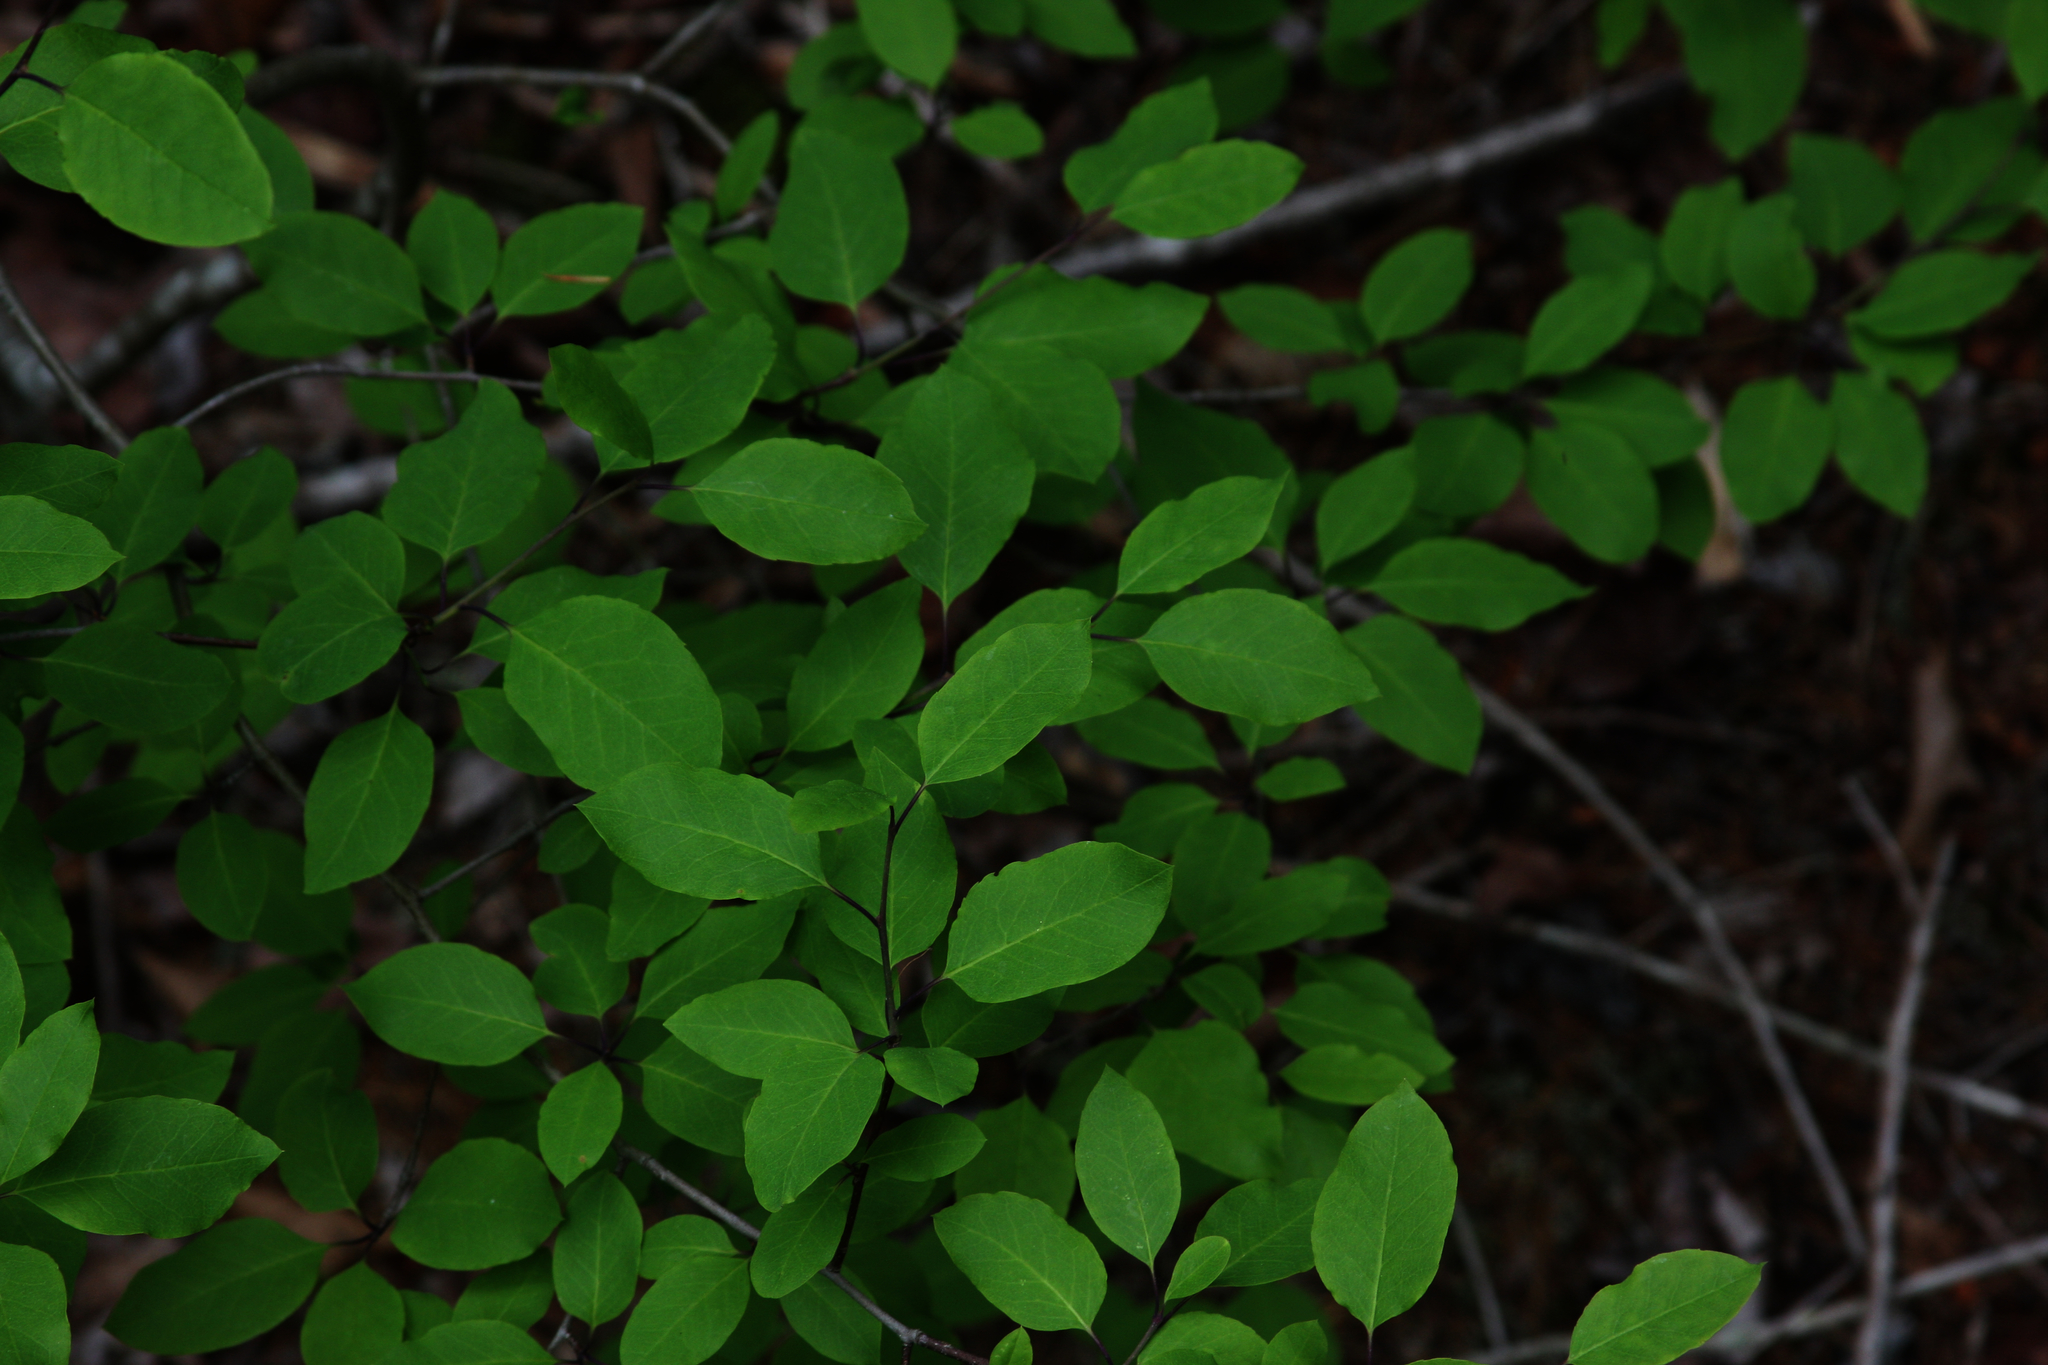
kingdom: Plantae
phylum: Tracheophyta
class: Magnoliopsida
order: Aquifoliales
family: Aquifoliaceae
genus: Ilex
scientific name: Ilex mucronata
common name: Catberry
